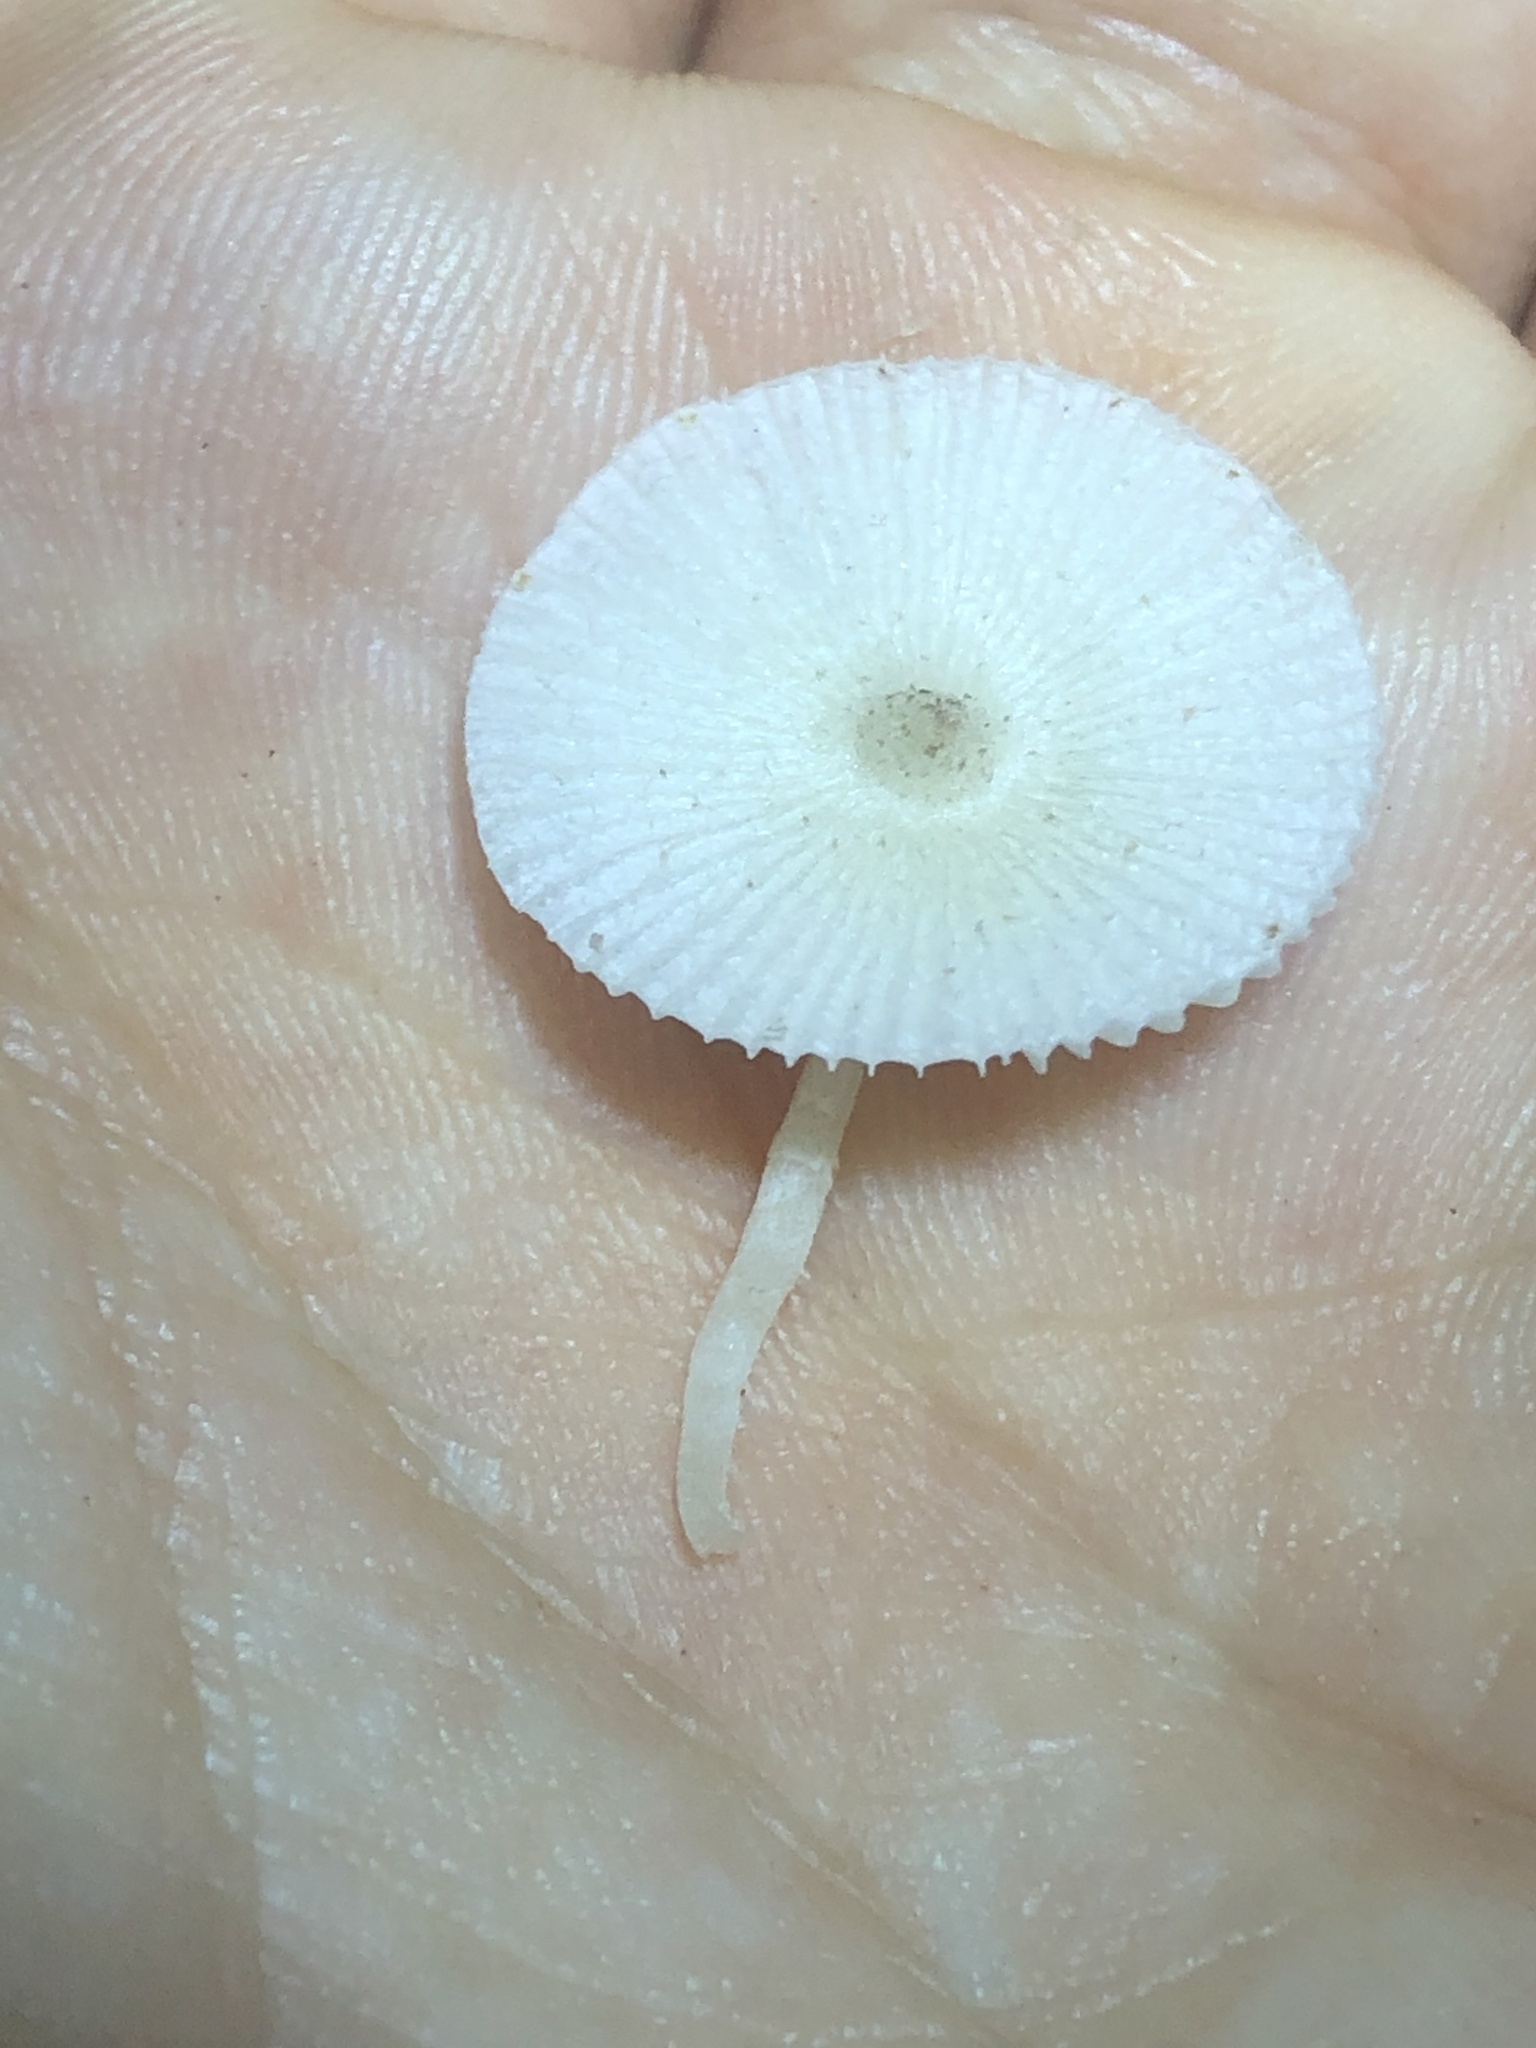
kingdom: Fungi
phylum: Basidiomycota
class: Agaricomycetes
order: Agaricales
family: Agaricaceae
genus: Leucocoprinus
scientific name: Leucocoprinus fragilissimus
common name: Fragile dapperling
